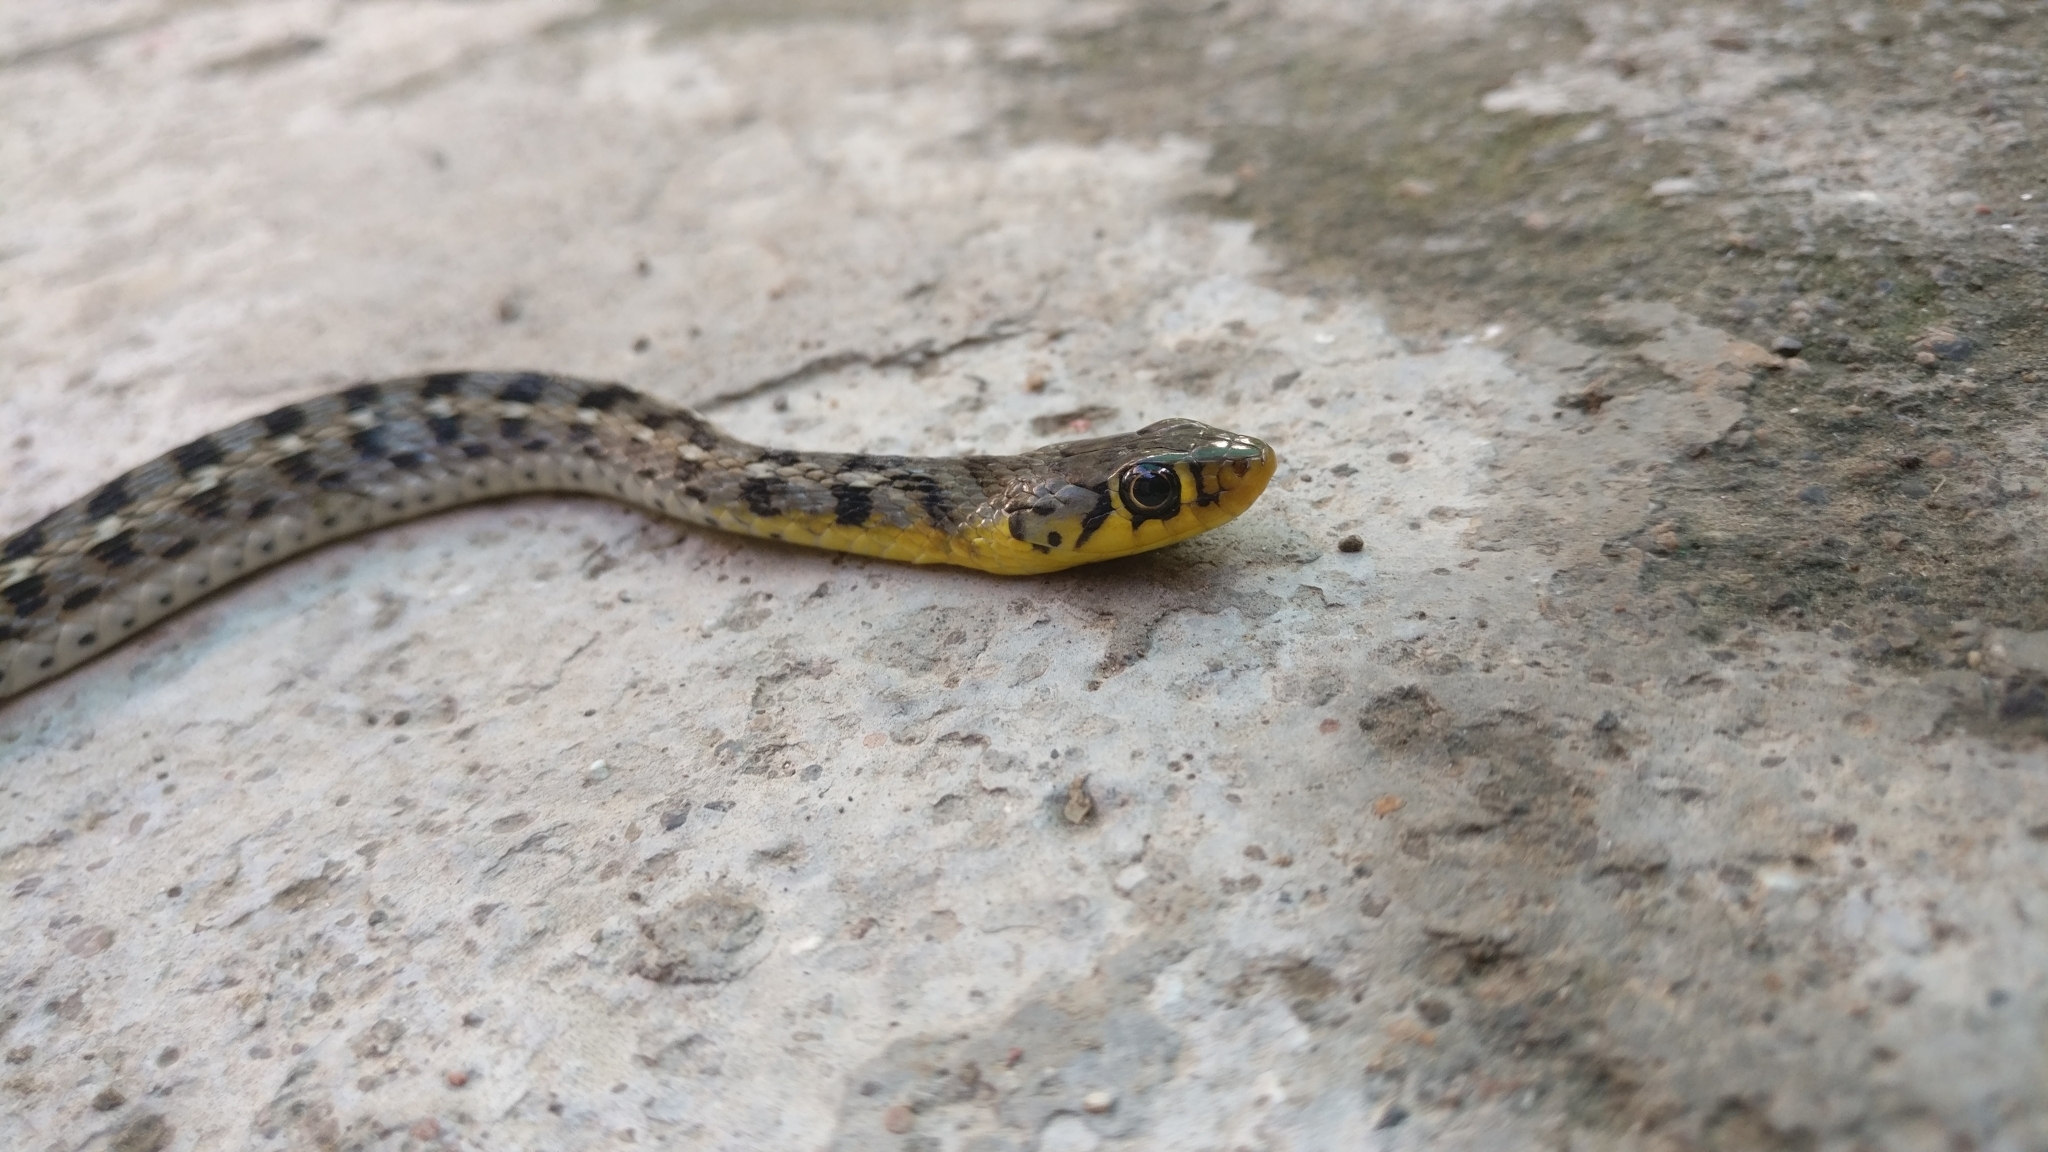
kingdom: Animalia
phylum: Chordata
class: Squamata
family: Colubridae
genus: Amphiesma
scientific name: Amphiesma stolatum
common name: Buff striped keelback
